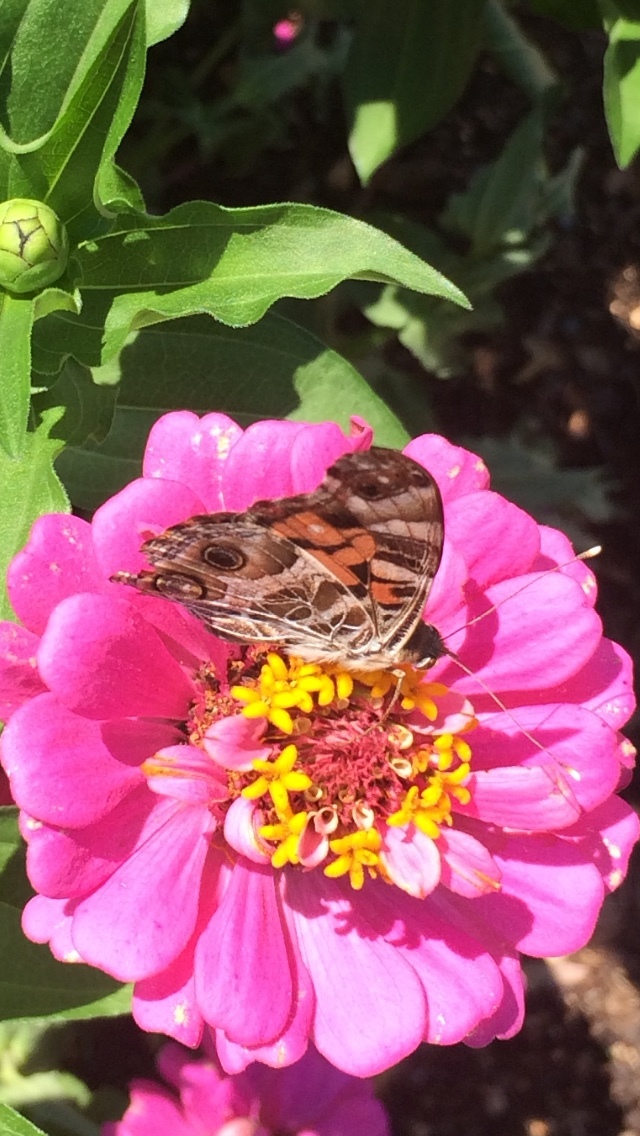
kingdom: Animalia
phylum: Arthropoda
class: Insecta
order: Lepidoptera
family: Nymphalidae
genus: Vanessa
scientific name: Vanessa virginiensis
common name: American lady
